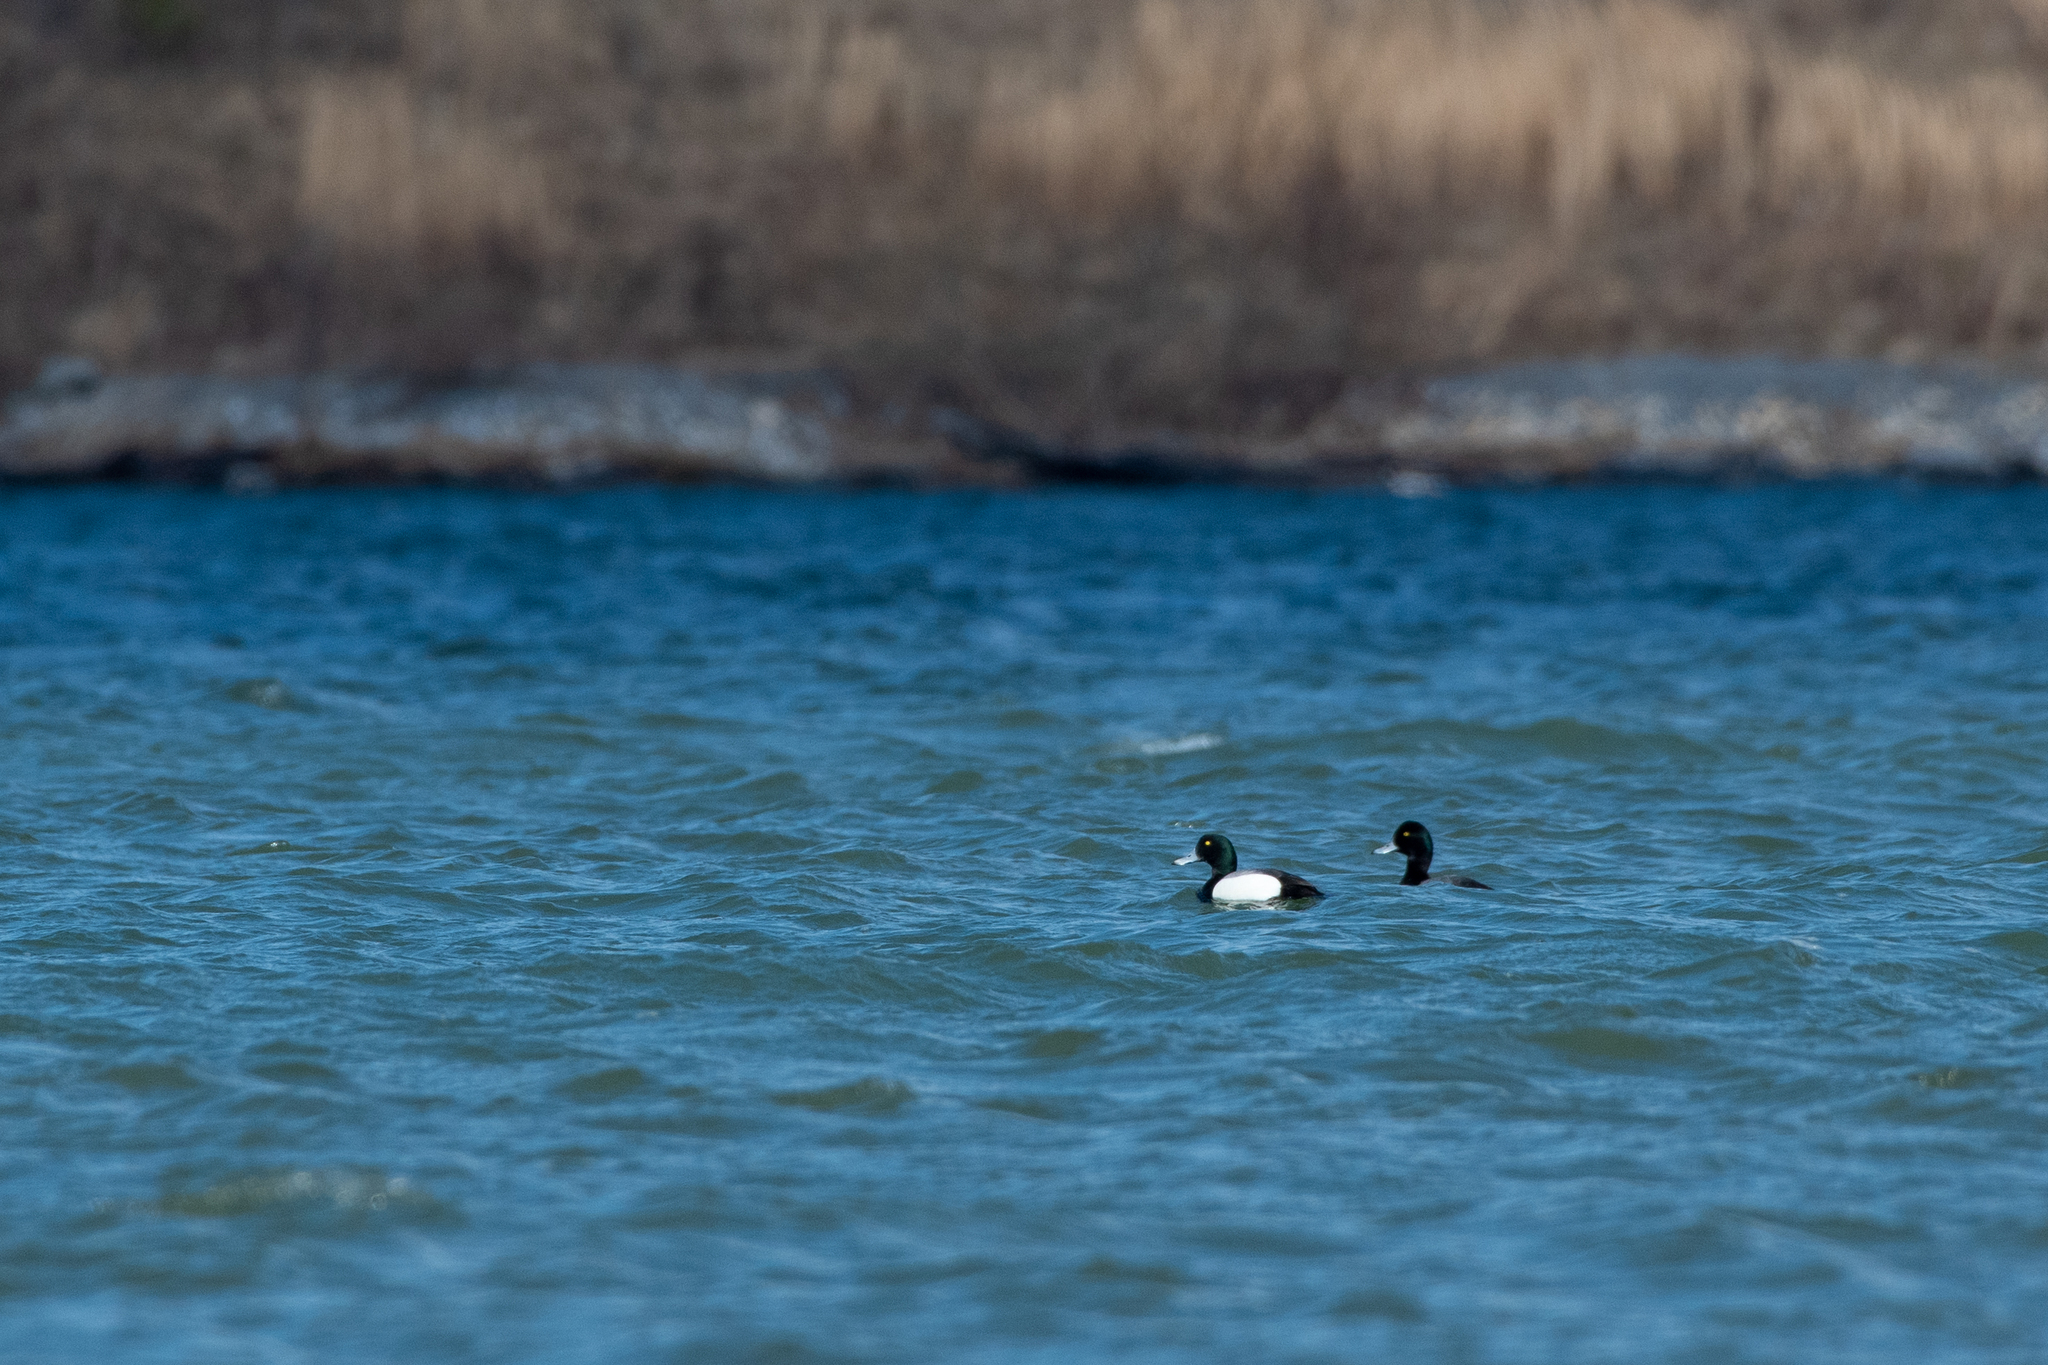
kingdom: Animalia
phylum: Chordata
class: Aves
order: Anseriformes
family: Anatidae
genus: Aythya
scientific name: Aythya marila
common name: Greater scaup
